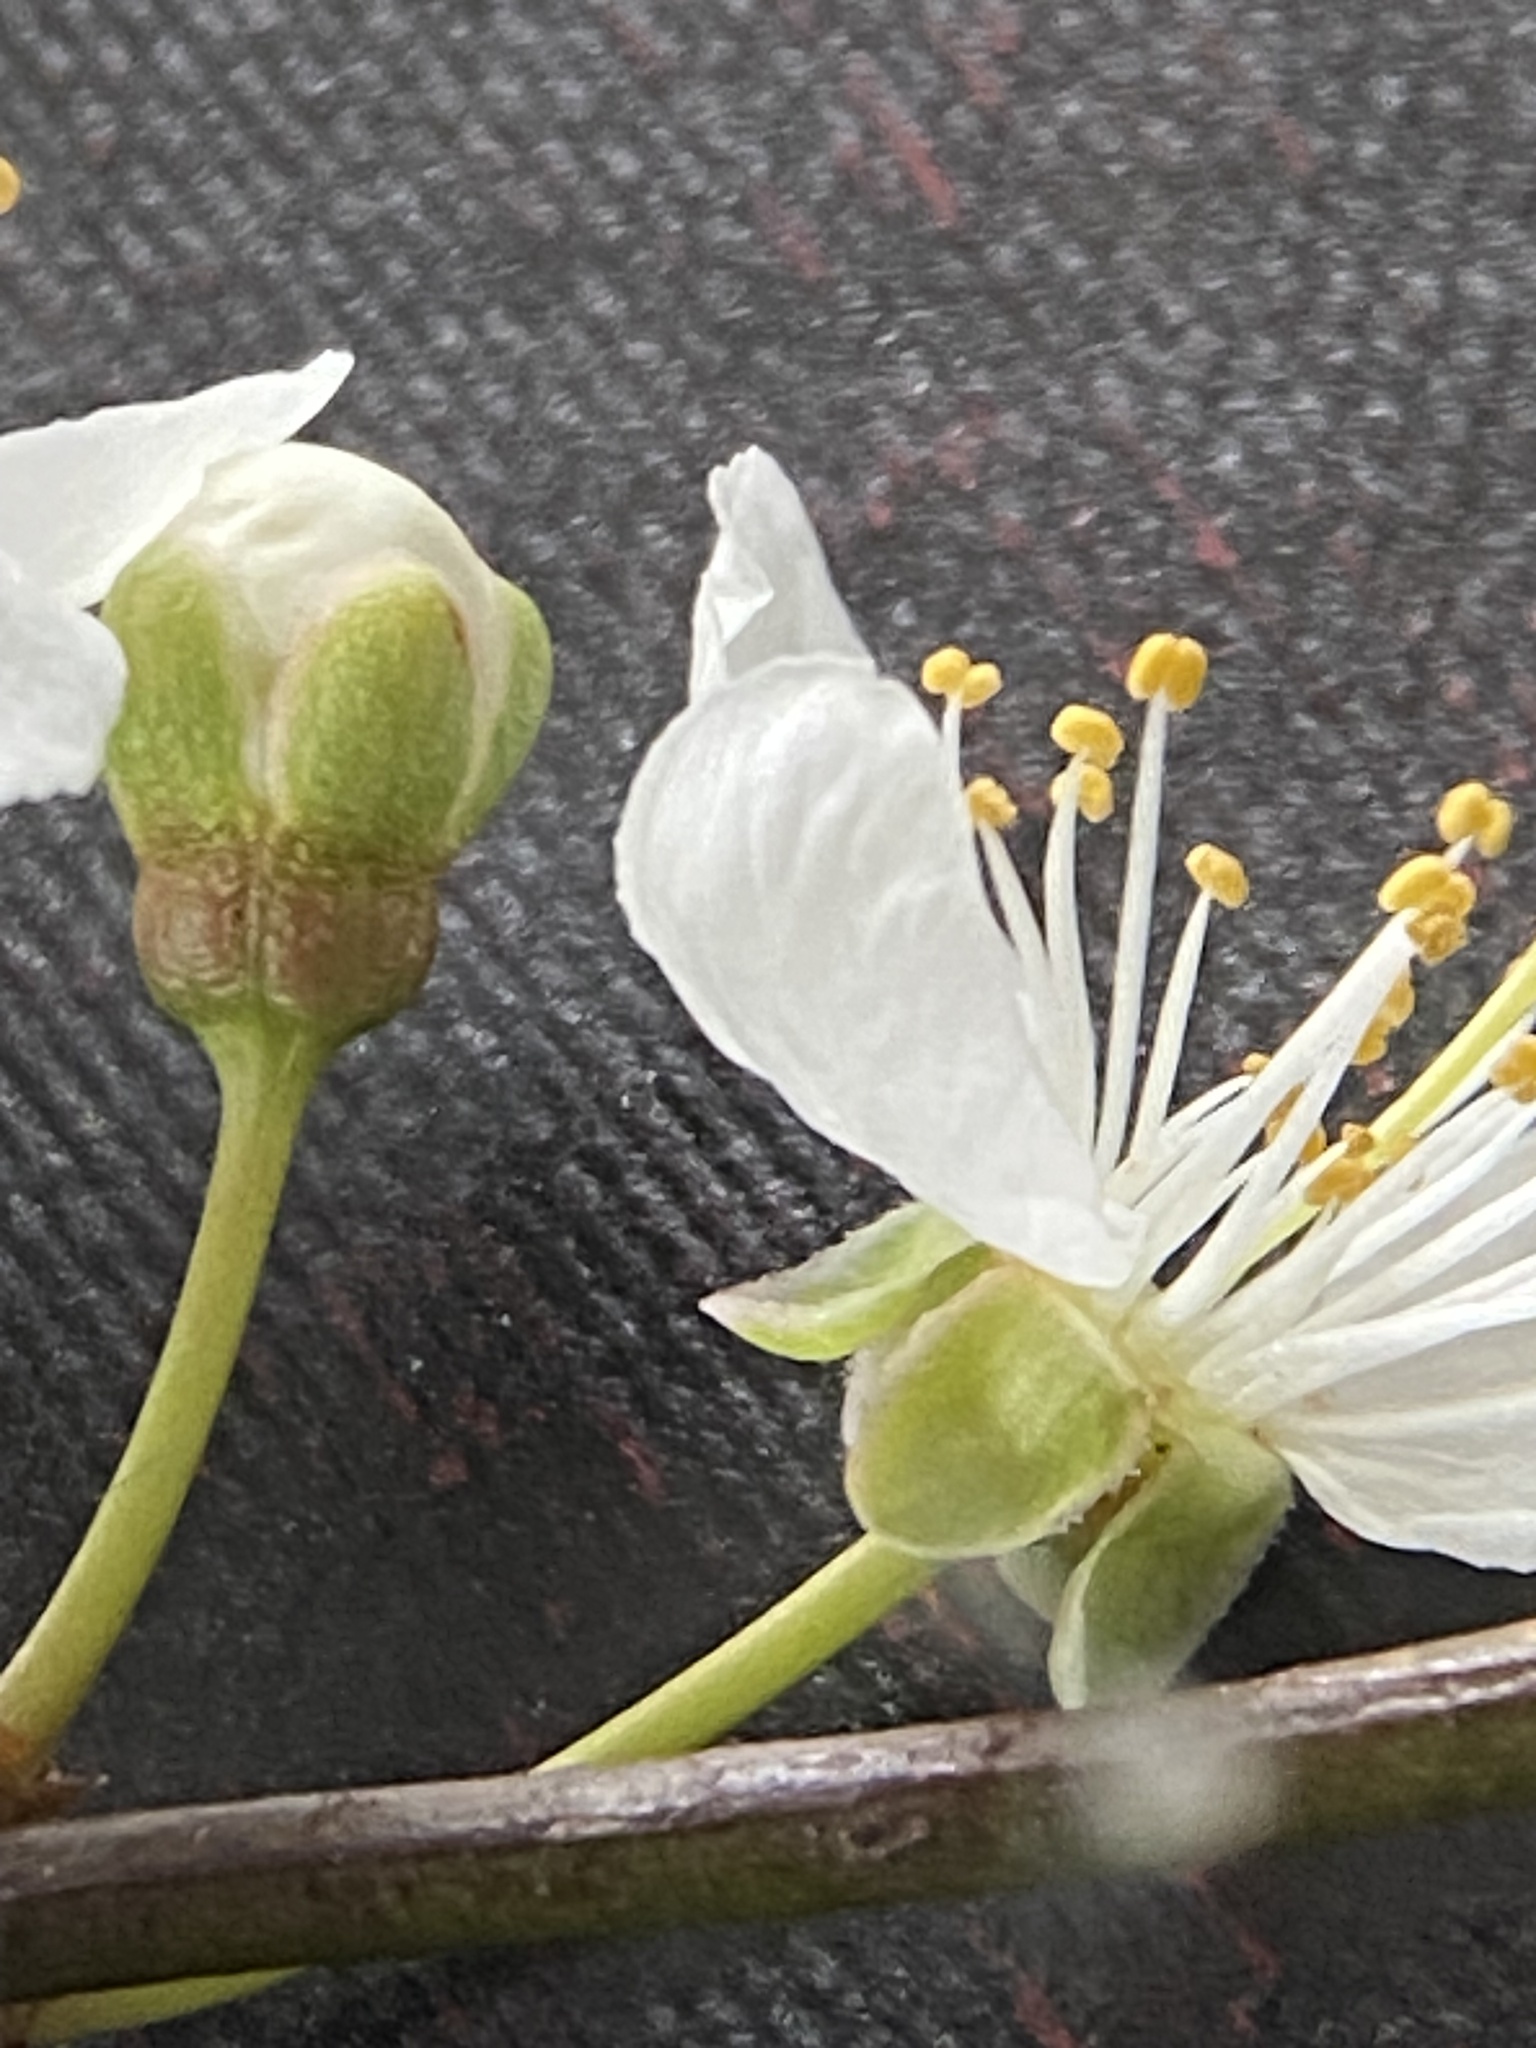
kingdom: Plantae
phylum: Tracheophyta
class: Magnoliopsida
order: Rosales
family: Rosaceae
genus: Prunus
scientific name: Prunus cerasifera
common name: Cherry plum
